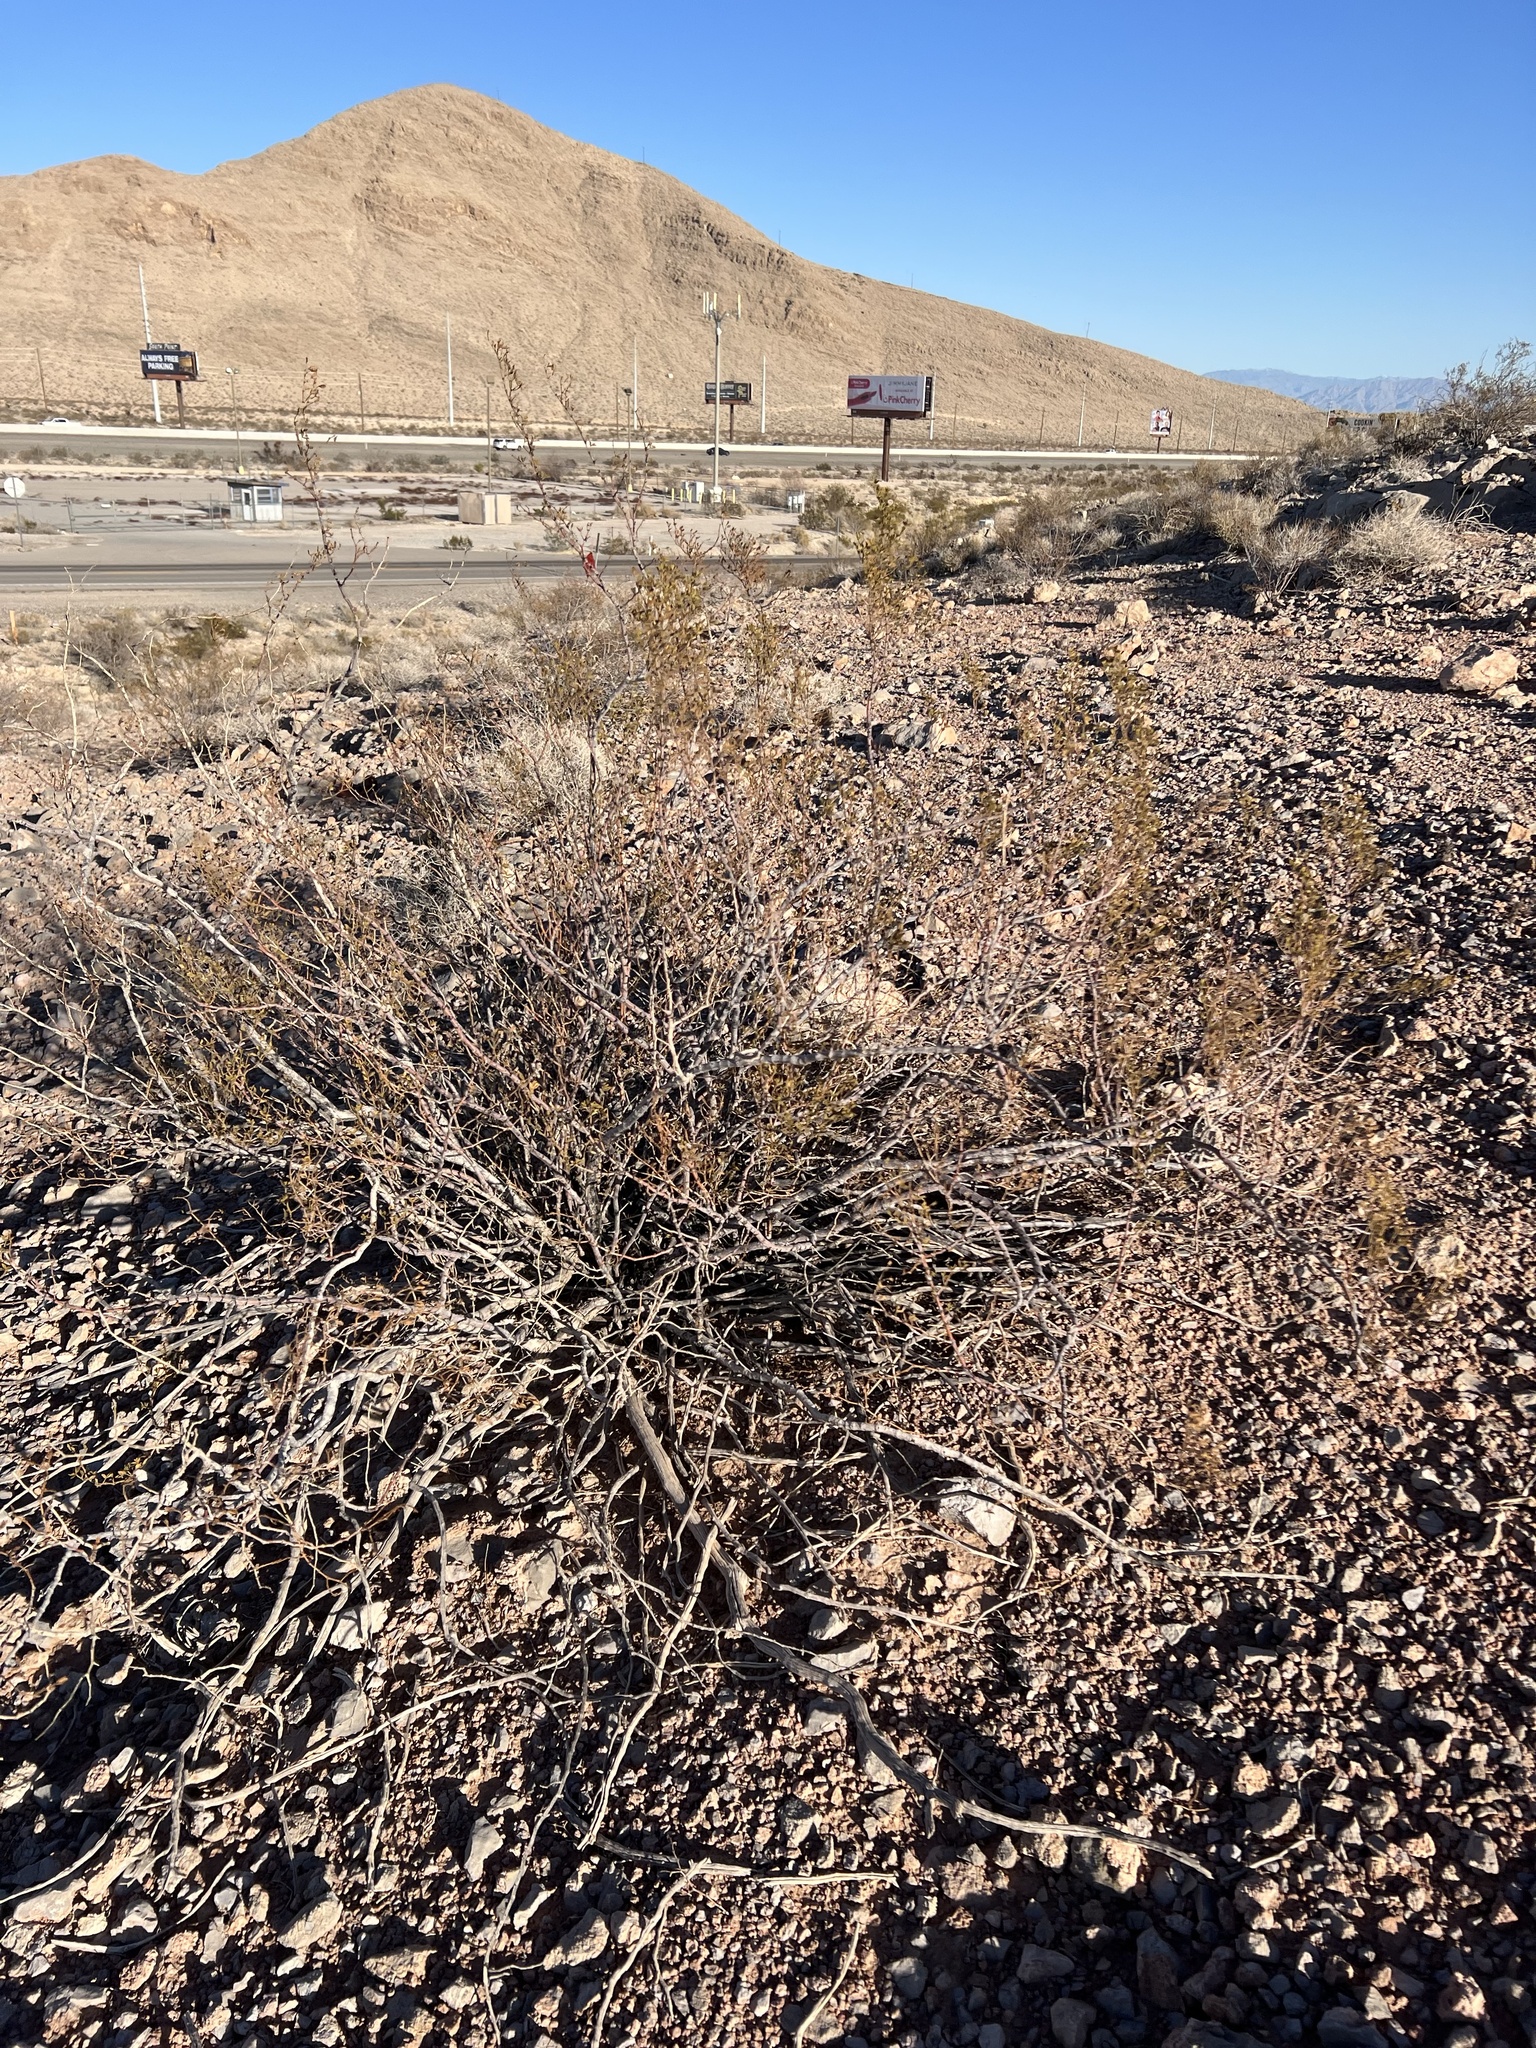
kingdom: Plantae
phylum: Tracheophyta
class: Magnoliopsida
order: Zygophyllales
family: Zygophyllaceae
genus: Larrea
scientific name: Larrea tridentata
